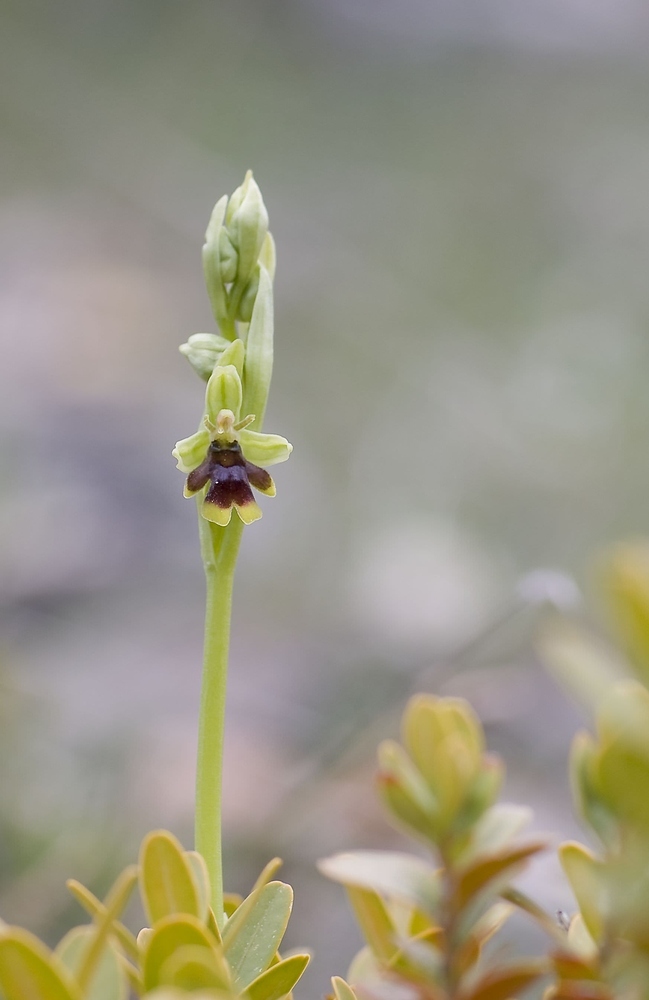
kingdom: Plantae
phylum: Tracheophyta
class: Liliopsida
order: Asparagales
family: Orchidaceae
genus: Ophrys
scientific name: Ophrys insectifera
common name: Fly orchid
